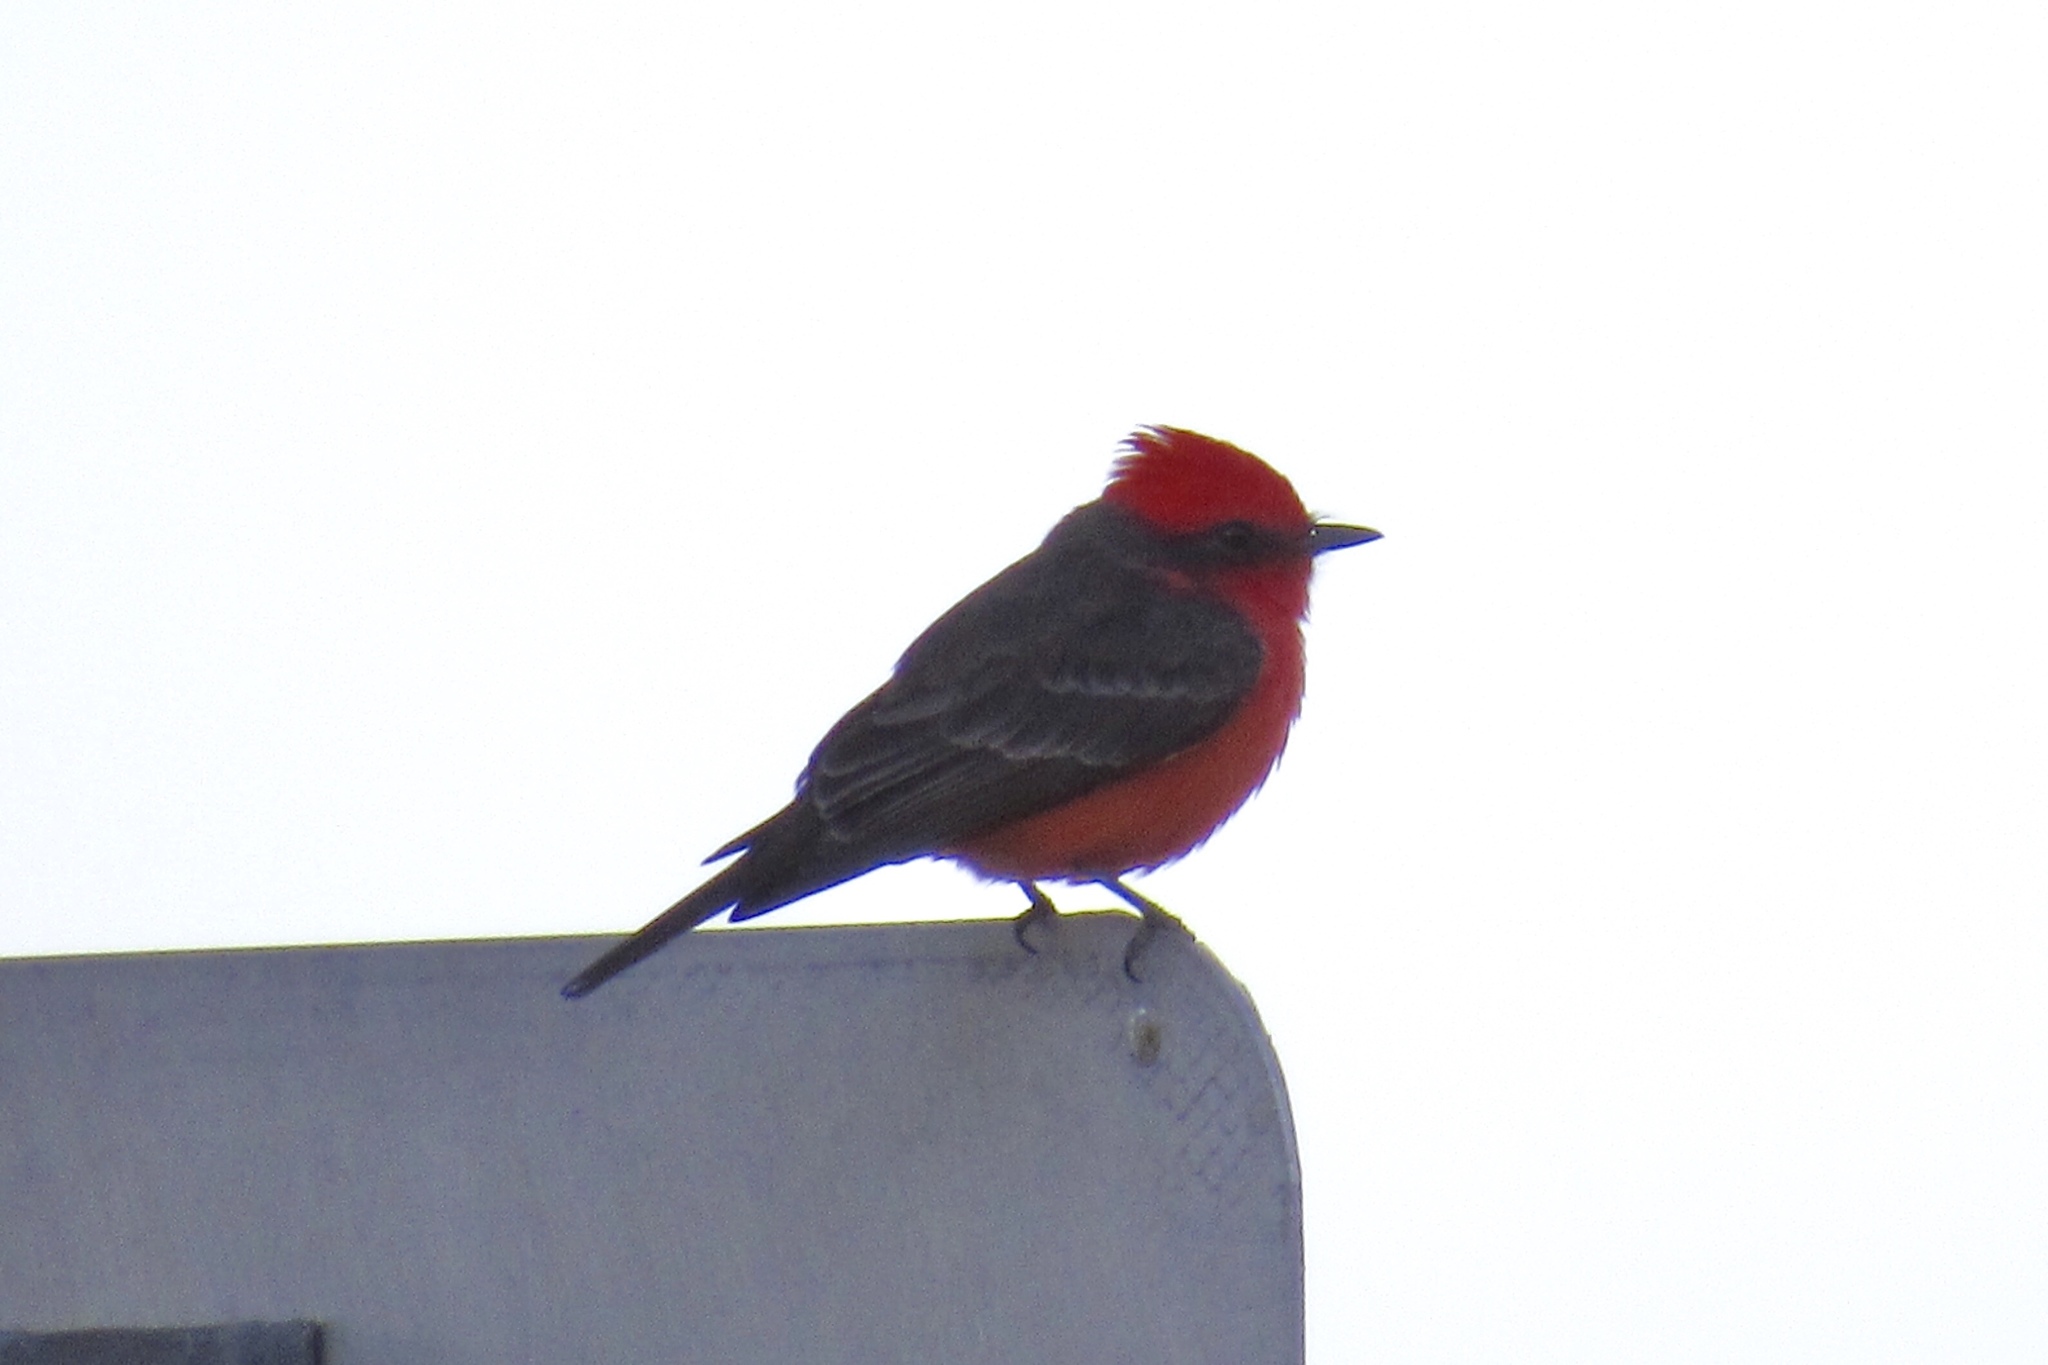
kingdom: Animalia
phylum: Chordata
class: Aves
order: Passeriformes
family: Tyrannidae
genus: Pyrocephalus
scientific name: Pyrocephalus rubinus
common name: Vermilion flycatcher
